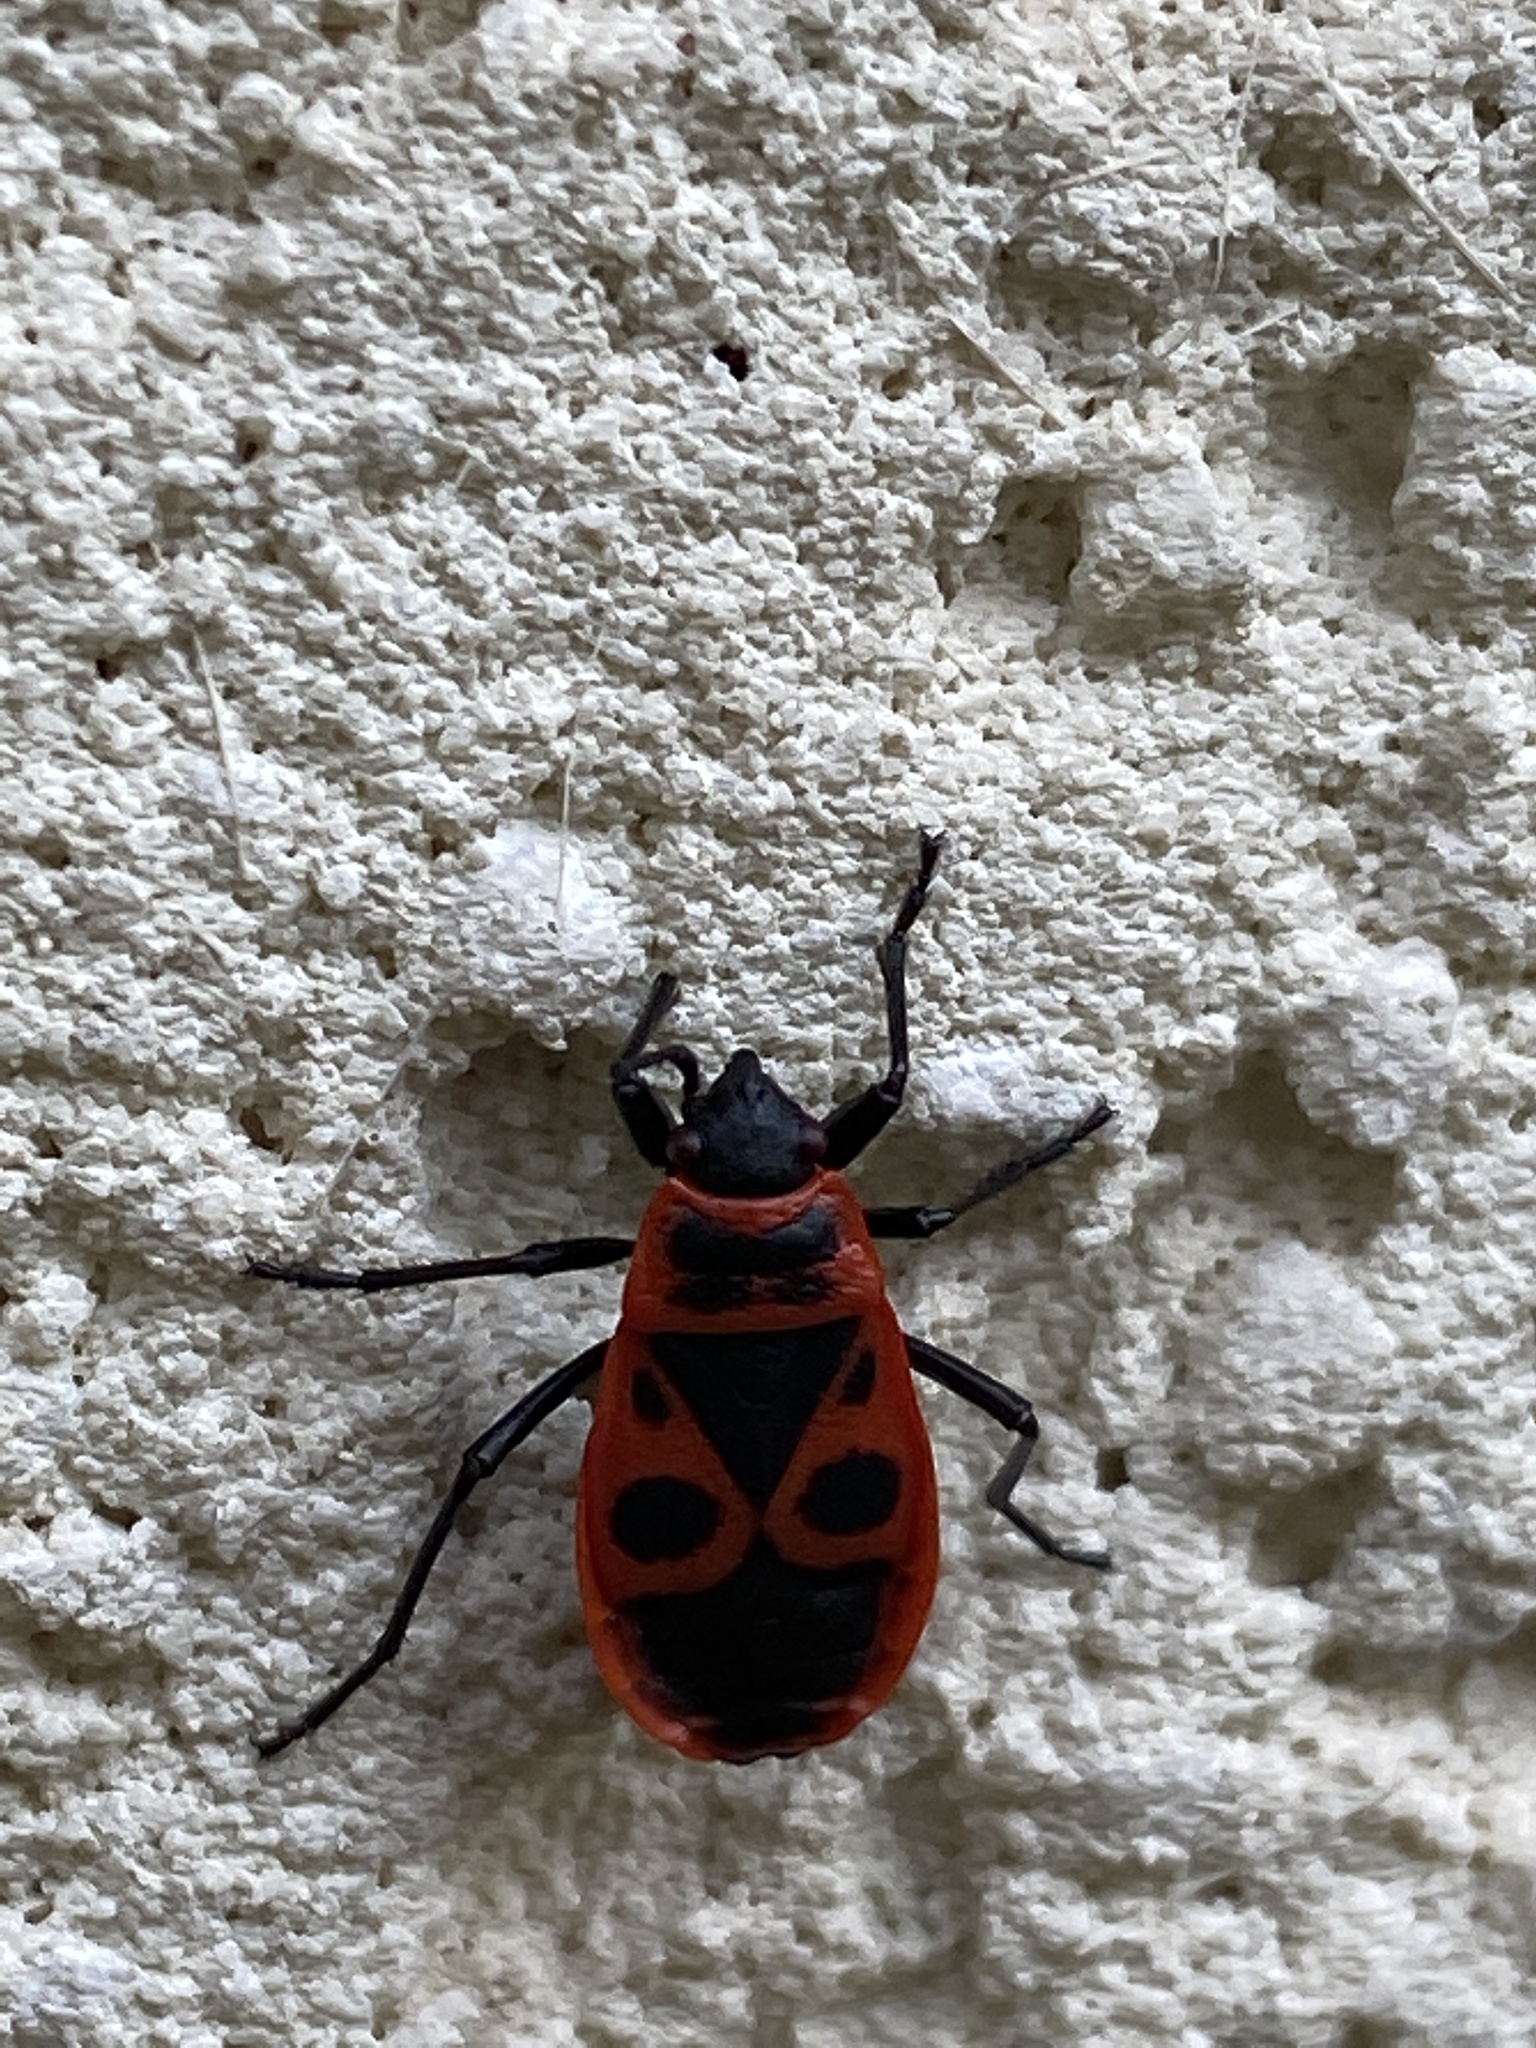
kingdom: Animalia
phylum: Arthropoda
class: Insecta
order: Hemiptera
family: Pyrrhocoridae
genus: Pyrrhocoris
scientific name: Pyrrhocoris apterus
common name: Firebug
